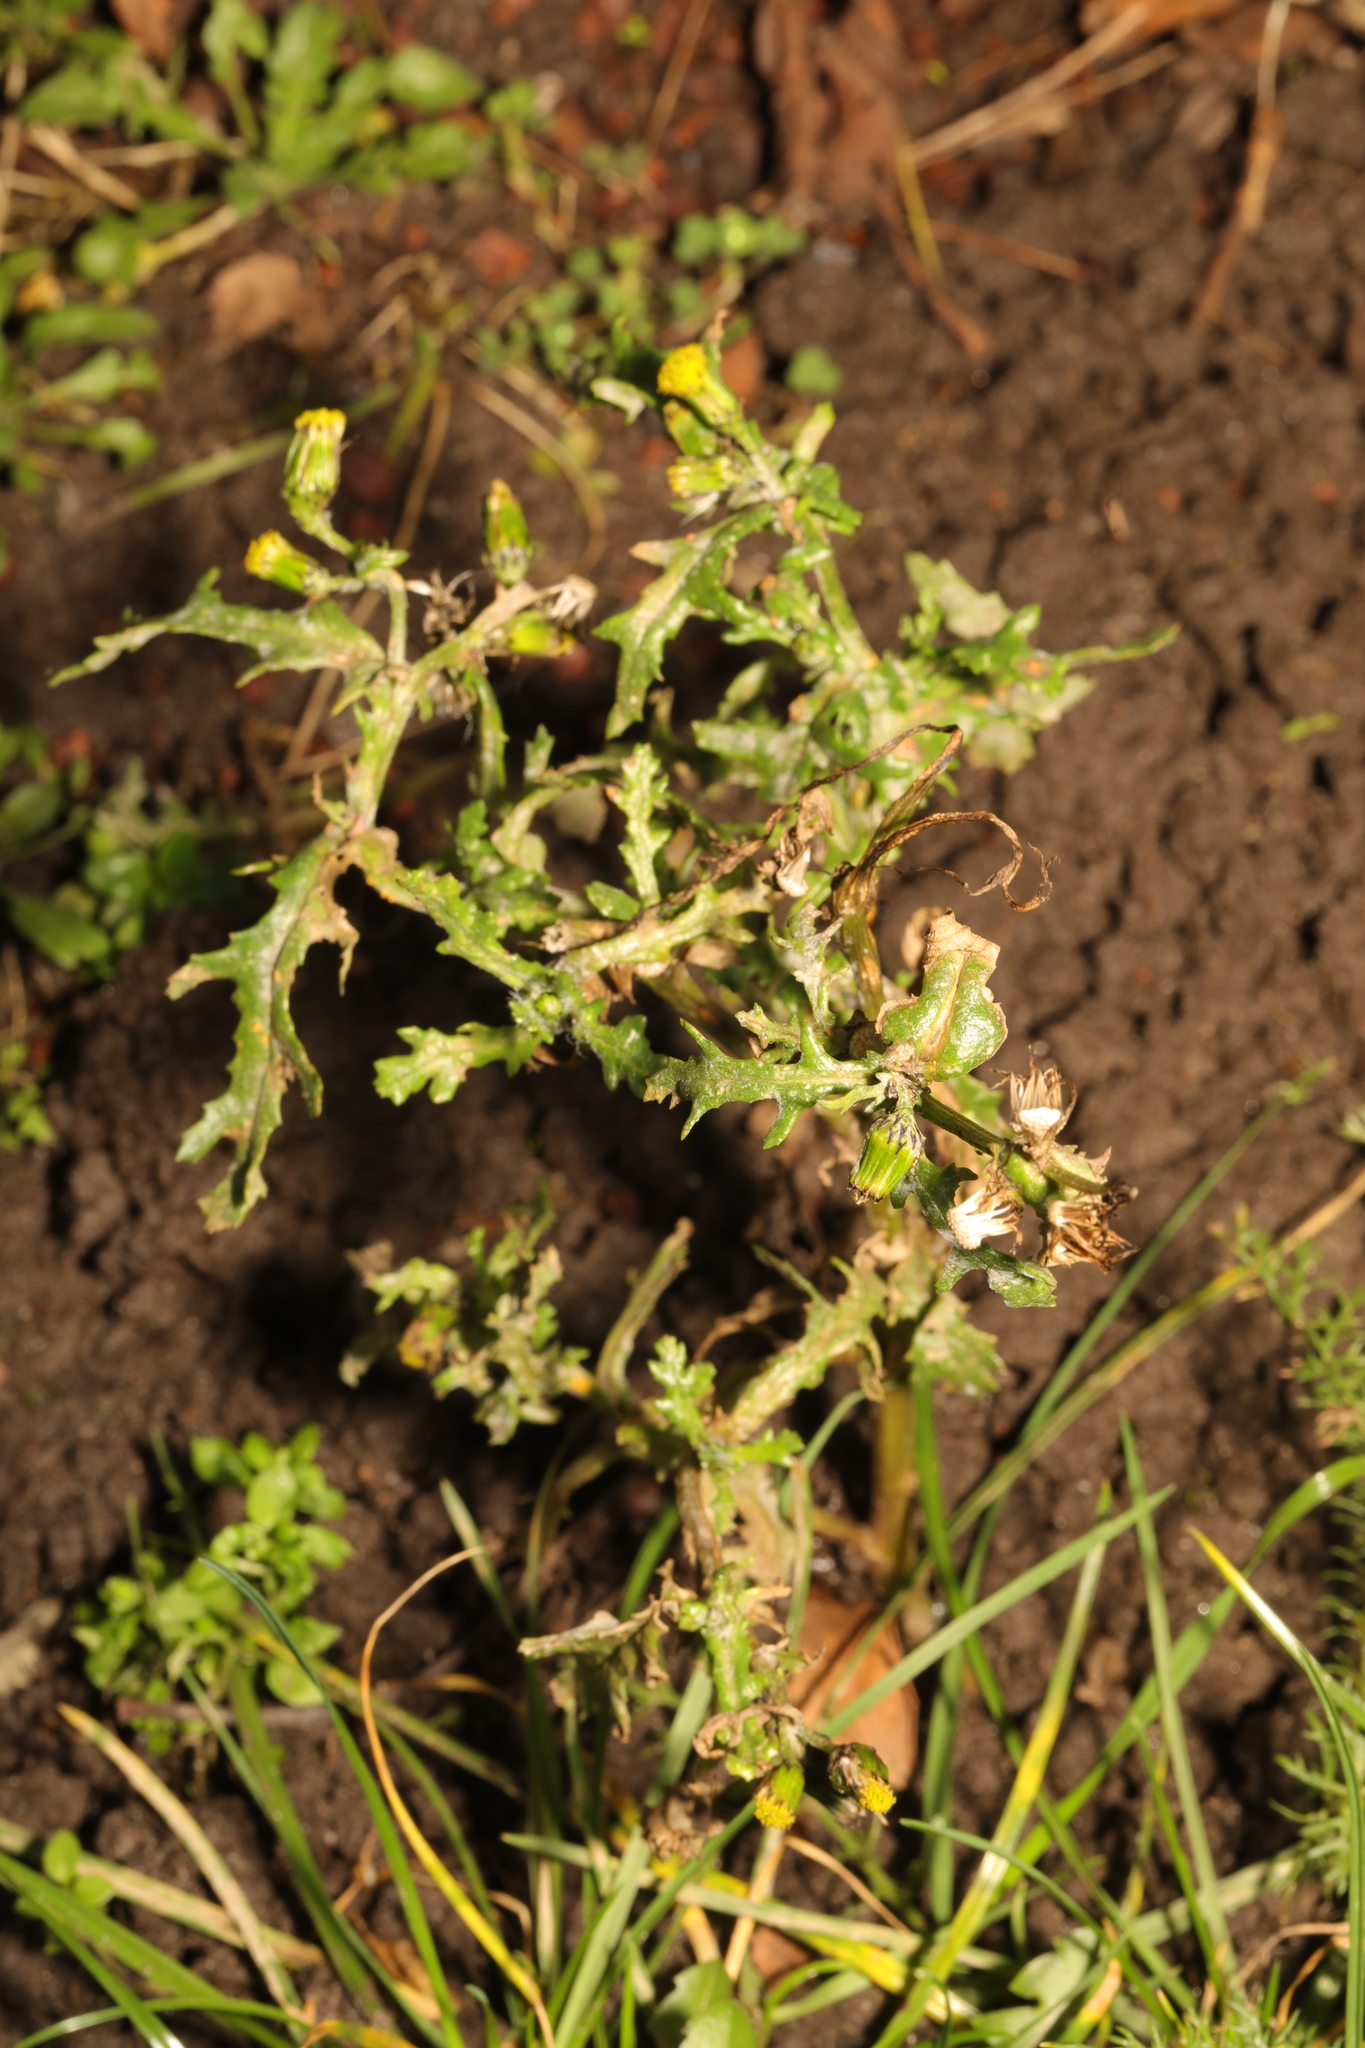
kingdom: Plantae
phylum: Tracheophyta
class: Magnoliopsida
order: Asterales
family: Asteraceae
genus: Senecio
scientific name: Senecio vulgaris
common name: Old-man-in-the-spring
